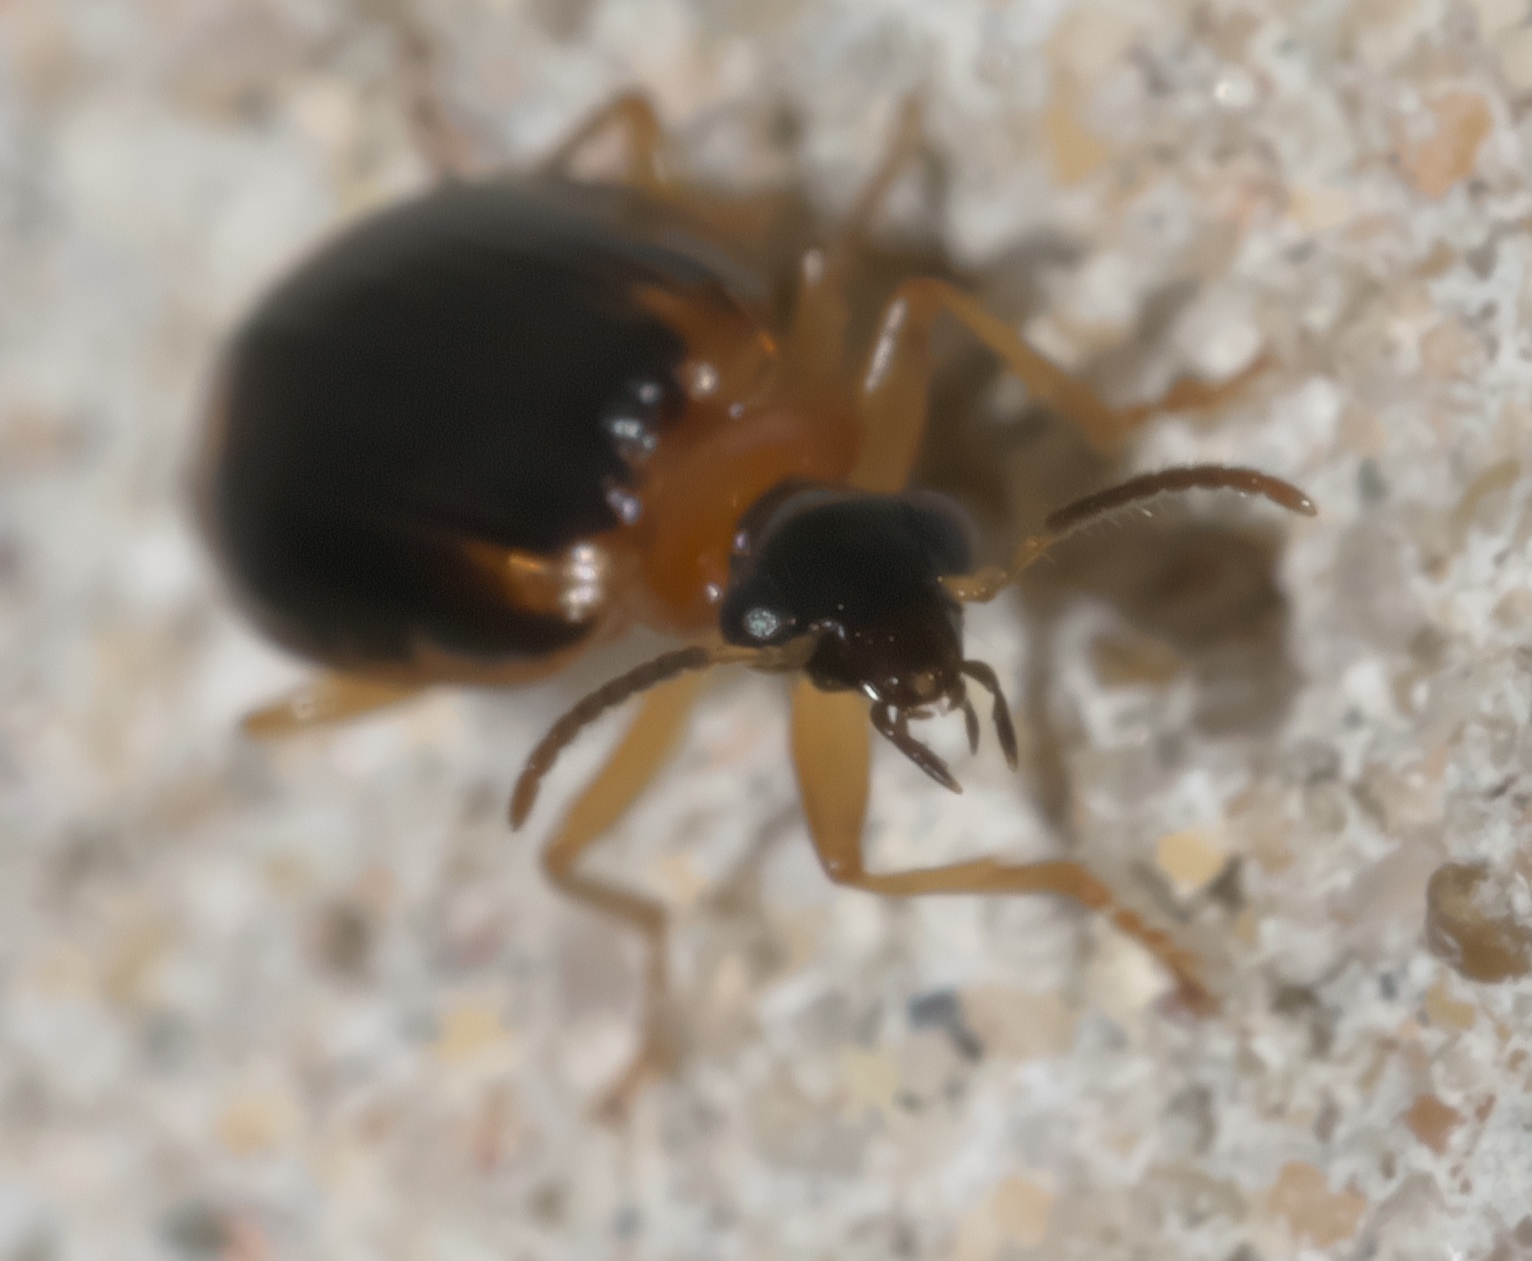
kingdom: Animalia
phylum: Arthropoda
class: Insecta
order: Coleoptera
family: Carabidae
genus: Lebia
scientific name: Lebia analis
